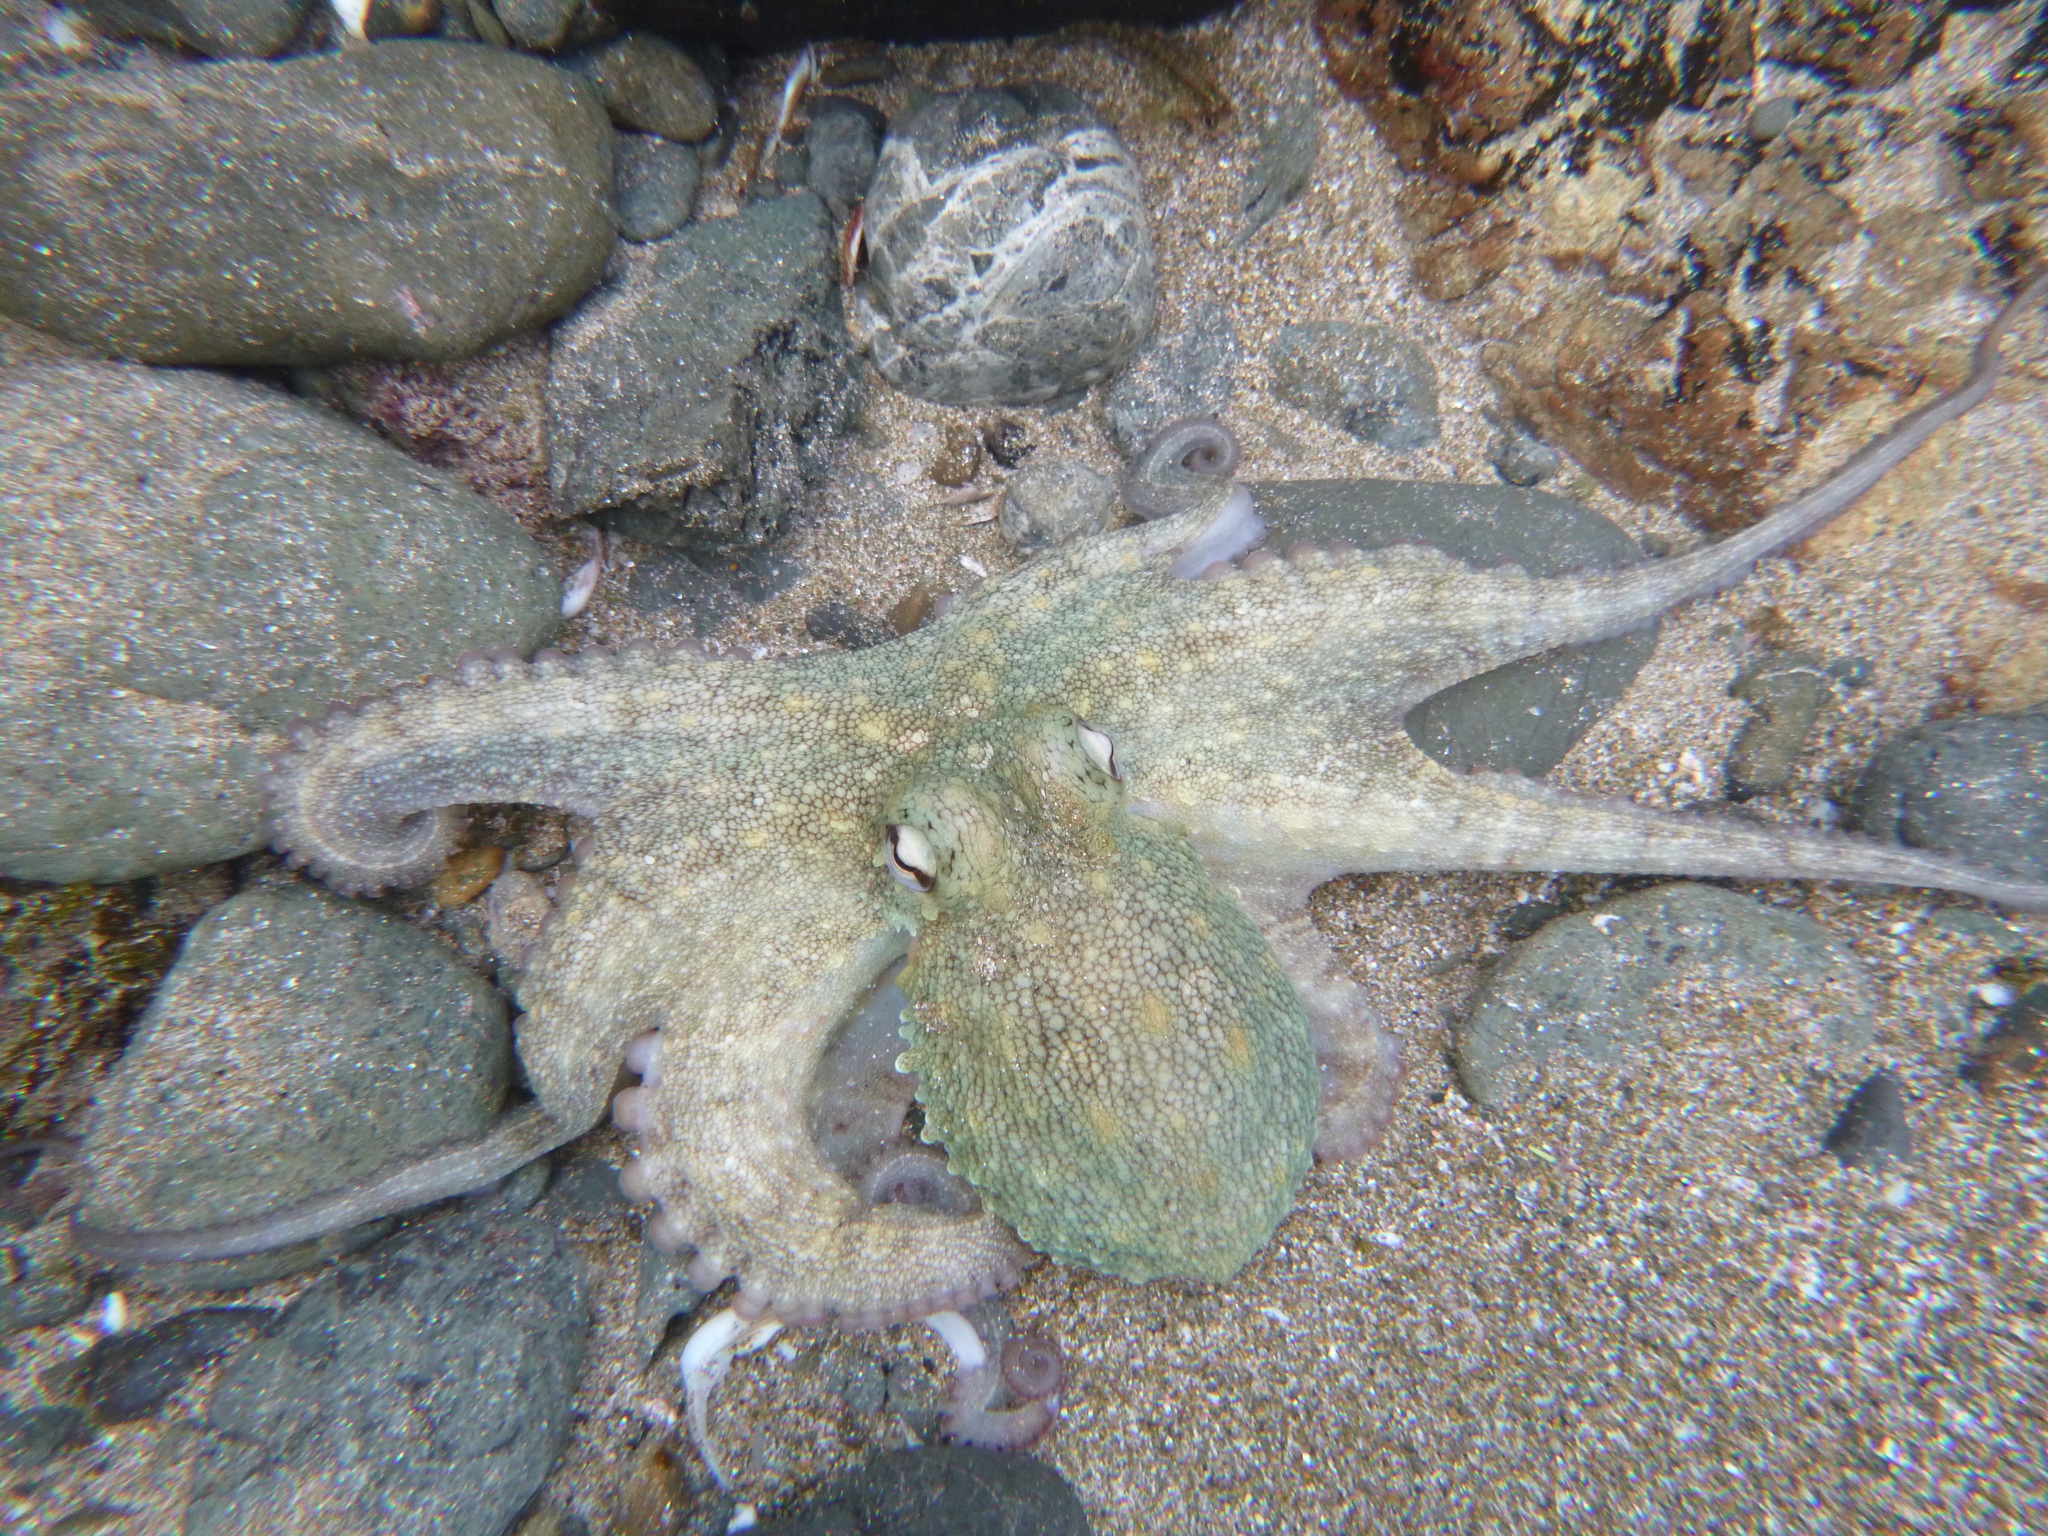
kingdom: Animalia
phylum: Mollusca
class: Cephalopoda
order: Octopoda
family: Octopodidae
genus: Octopus
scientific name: Octopus tetricus
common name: Sydney octopus
